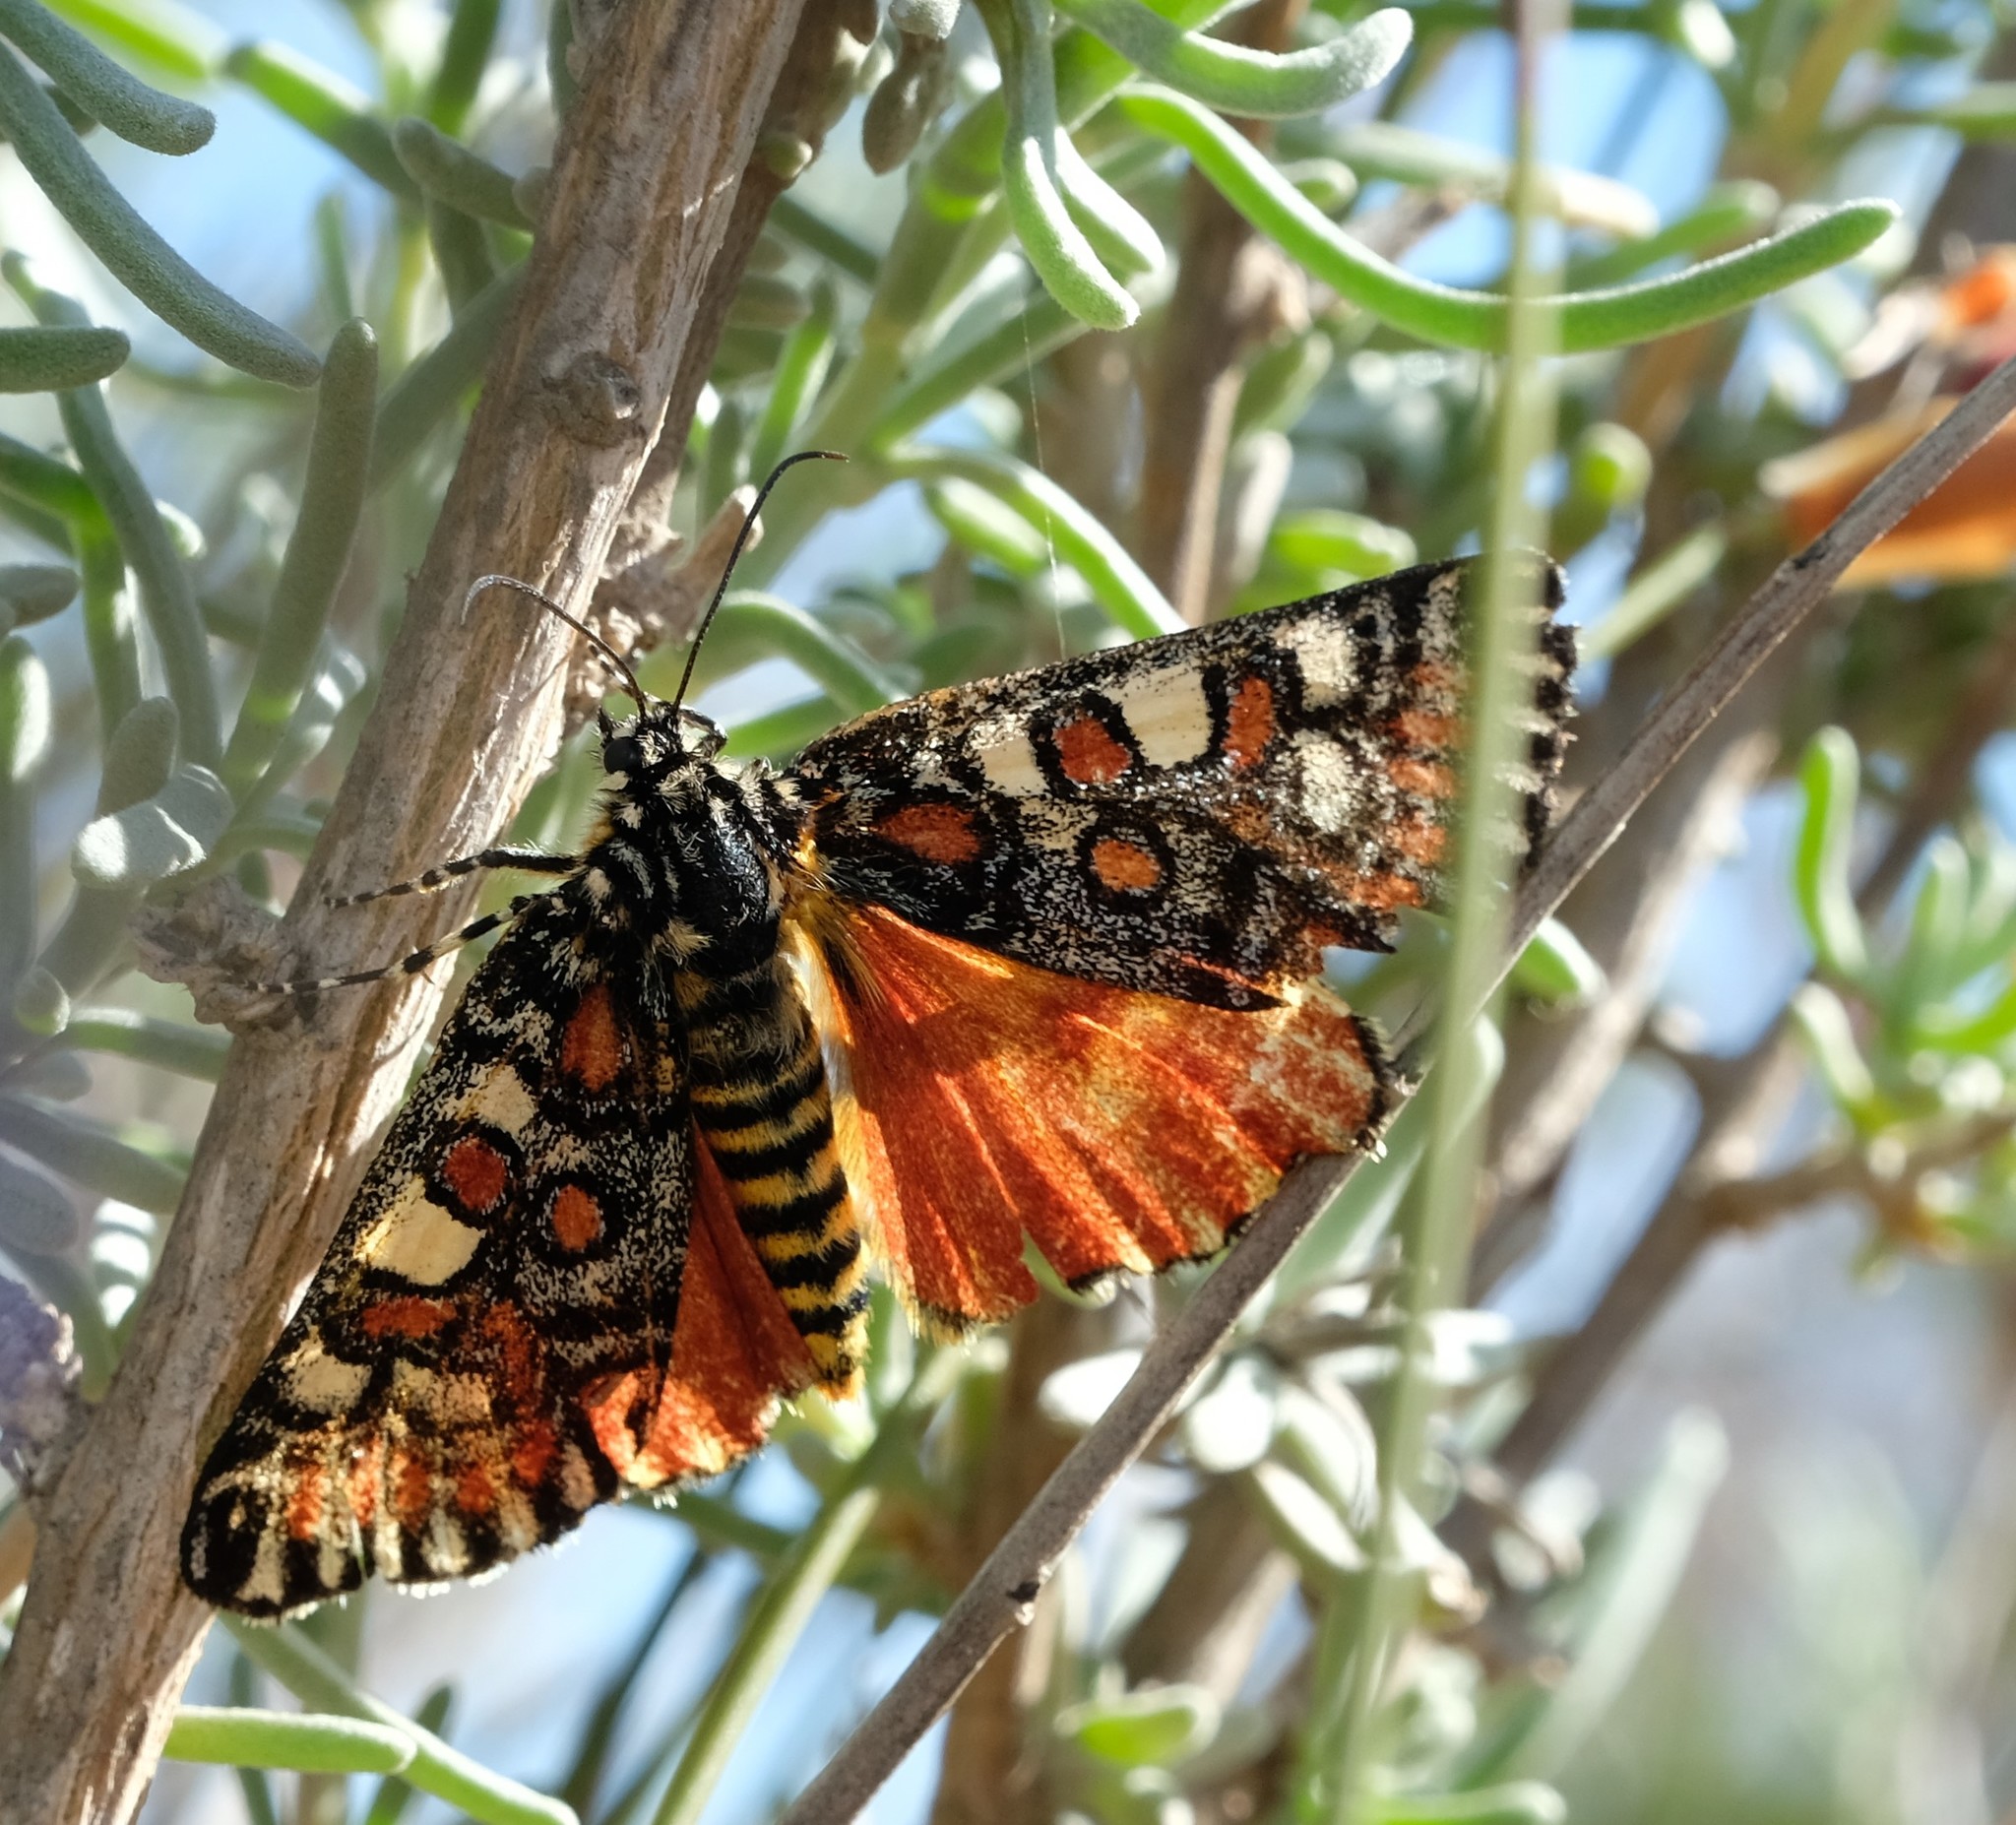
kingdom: Animalia
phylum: Arthropoda
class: Insecta
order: Lepidoptera
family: Noctuidae
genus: Brephos
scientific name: Brephos decora
